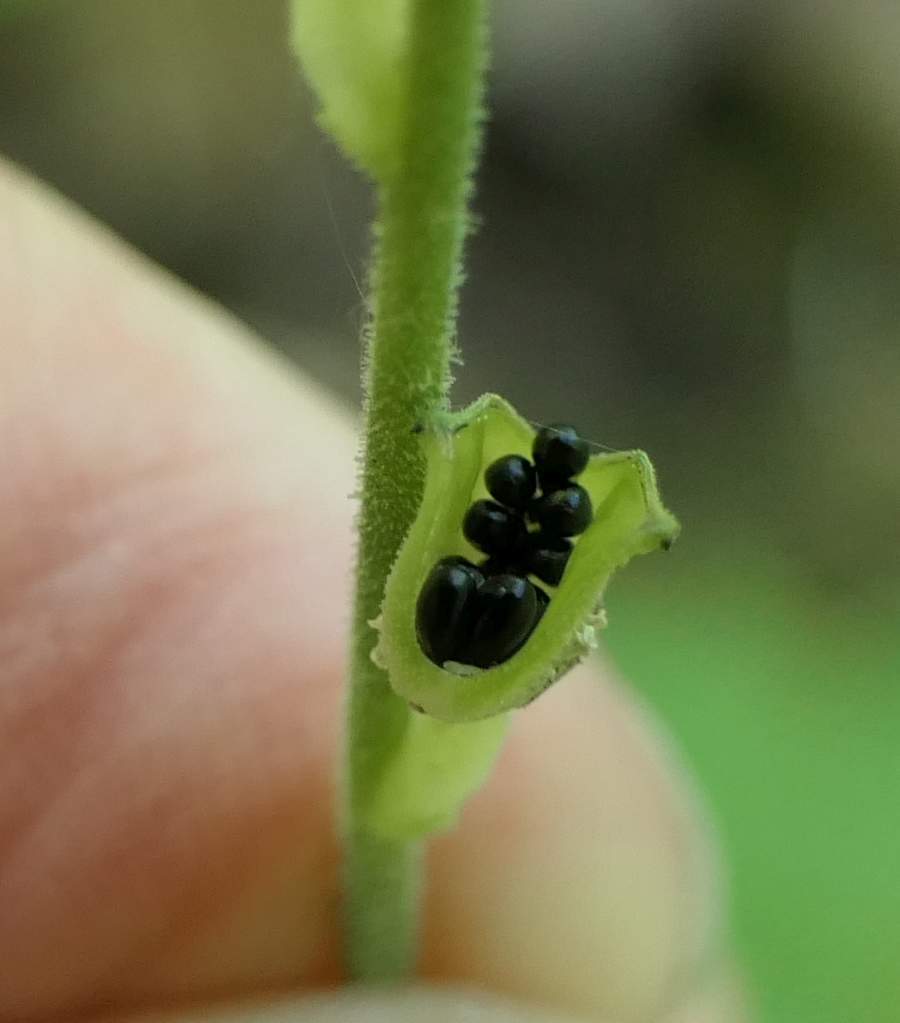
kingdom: Plantae
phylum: Tracheophyta
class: Magnoliopsida
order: Saxifragales
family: Saxifragaceae
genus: Mitella
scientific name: Mitella diphylla
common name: Coolwort
